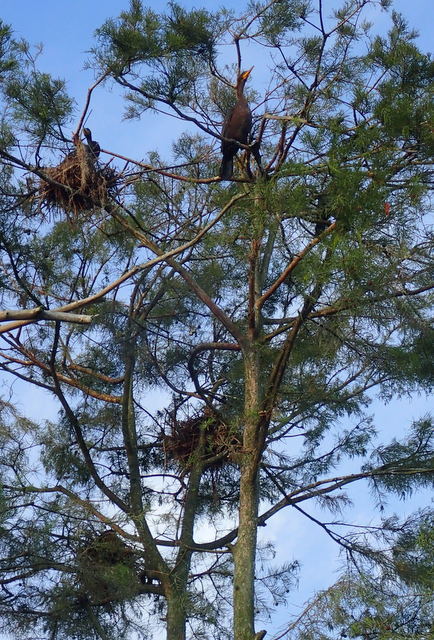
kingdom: Animalia
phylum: Chordata
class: Aves
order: Suliformes
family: Phalacrocoracidae
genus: Phalacrocorax
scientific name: Phalacrocorax auritus
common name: Double-crested cormorant
